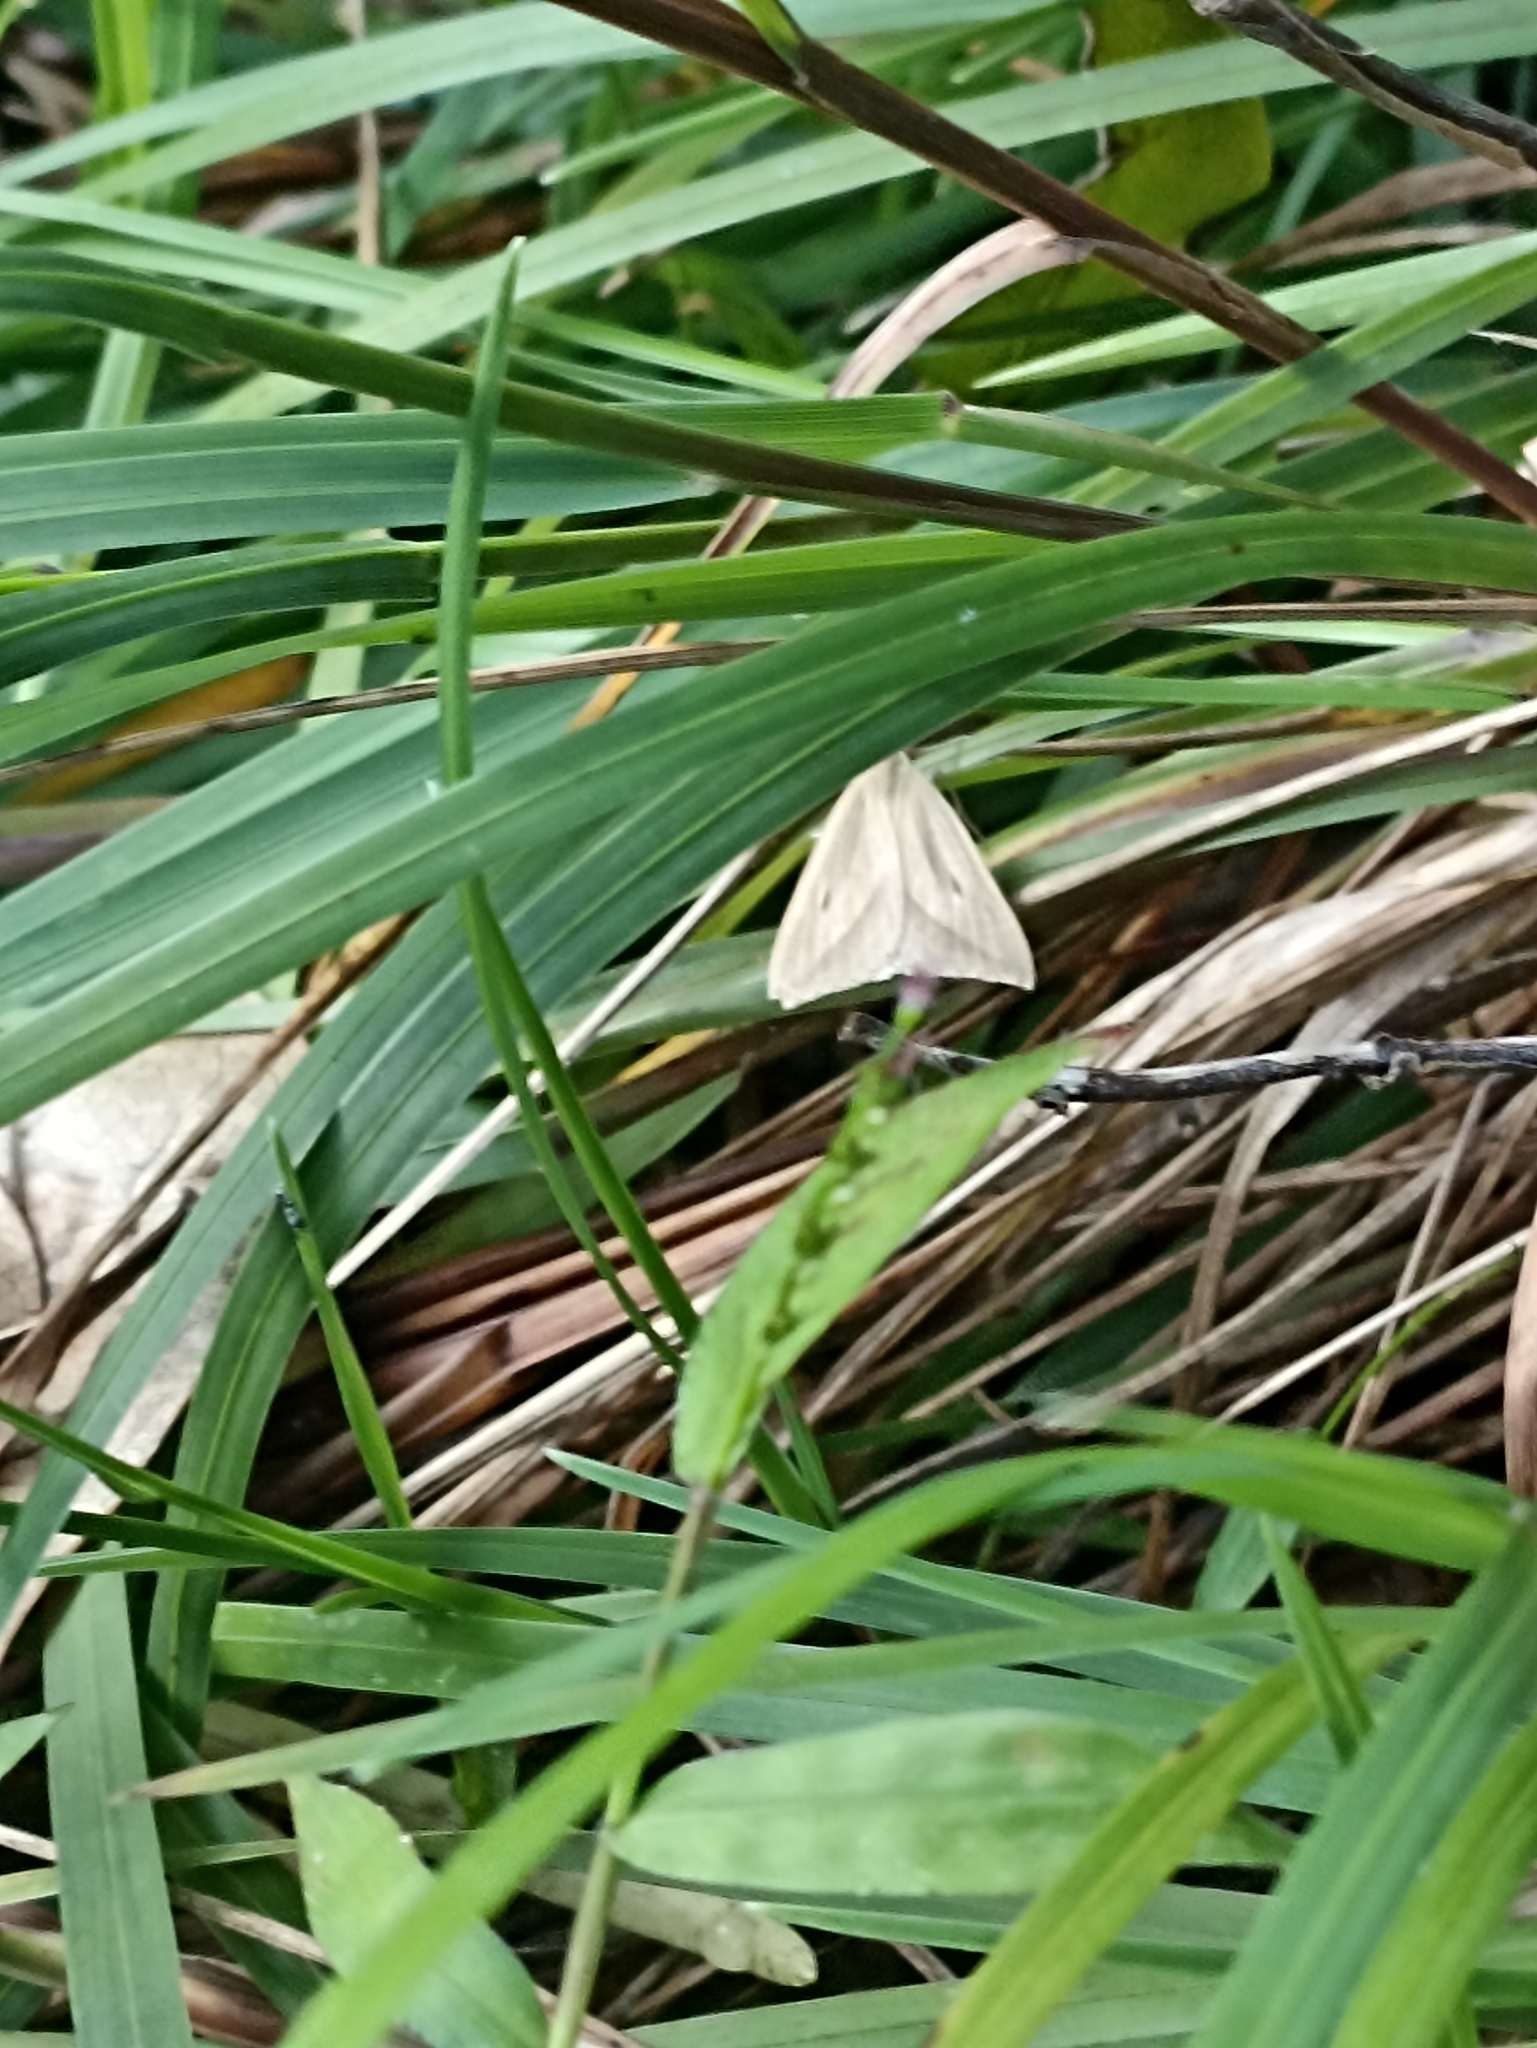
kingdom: Animalia
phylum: Arthropoda
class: Insecta
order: Lepidoptera
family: Geometridae
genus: Samana
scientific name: Samana falcatella
